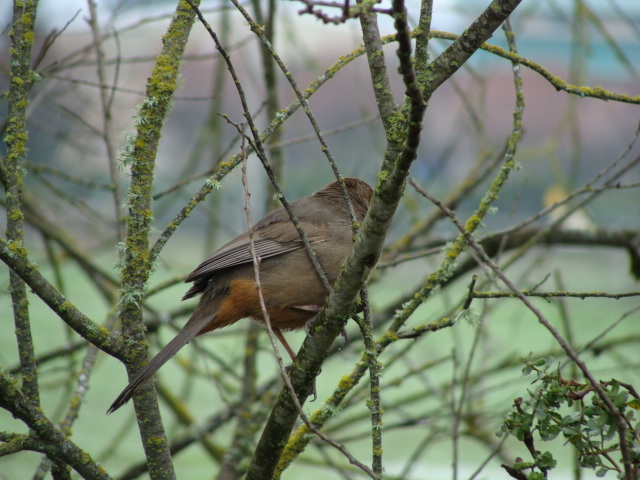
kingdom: Animalia
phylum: Chordata
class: Aves
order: Passeriformes
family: Passerellidae
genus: Melozone
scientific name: Melozone crissalis
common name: California towhee
